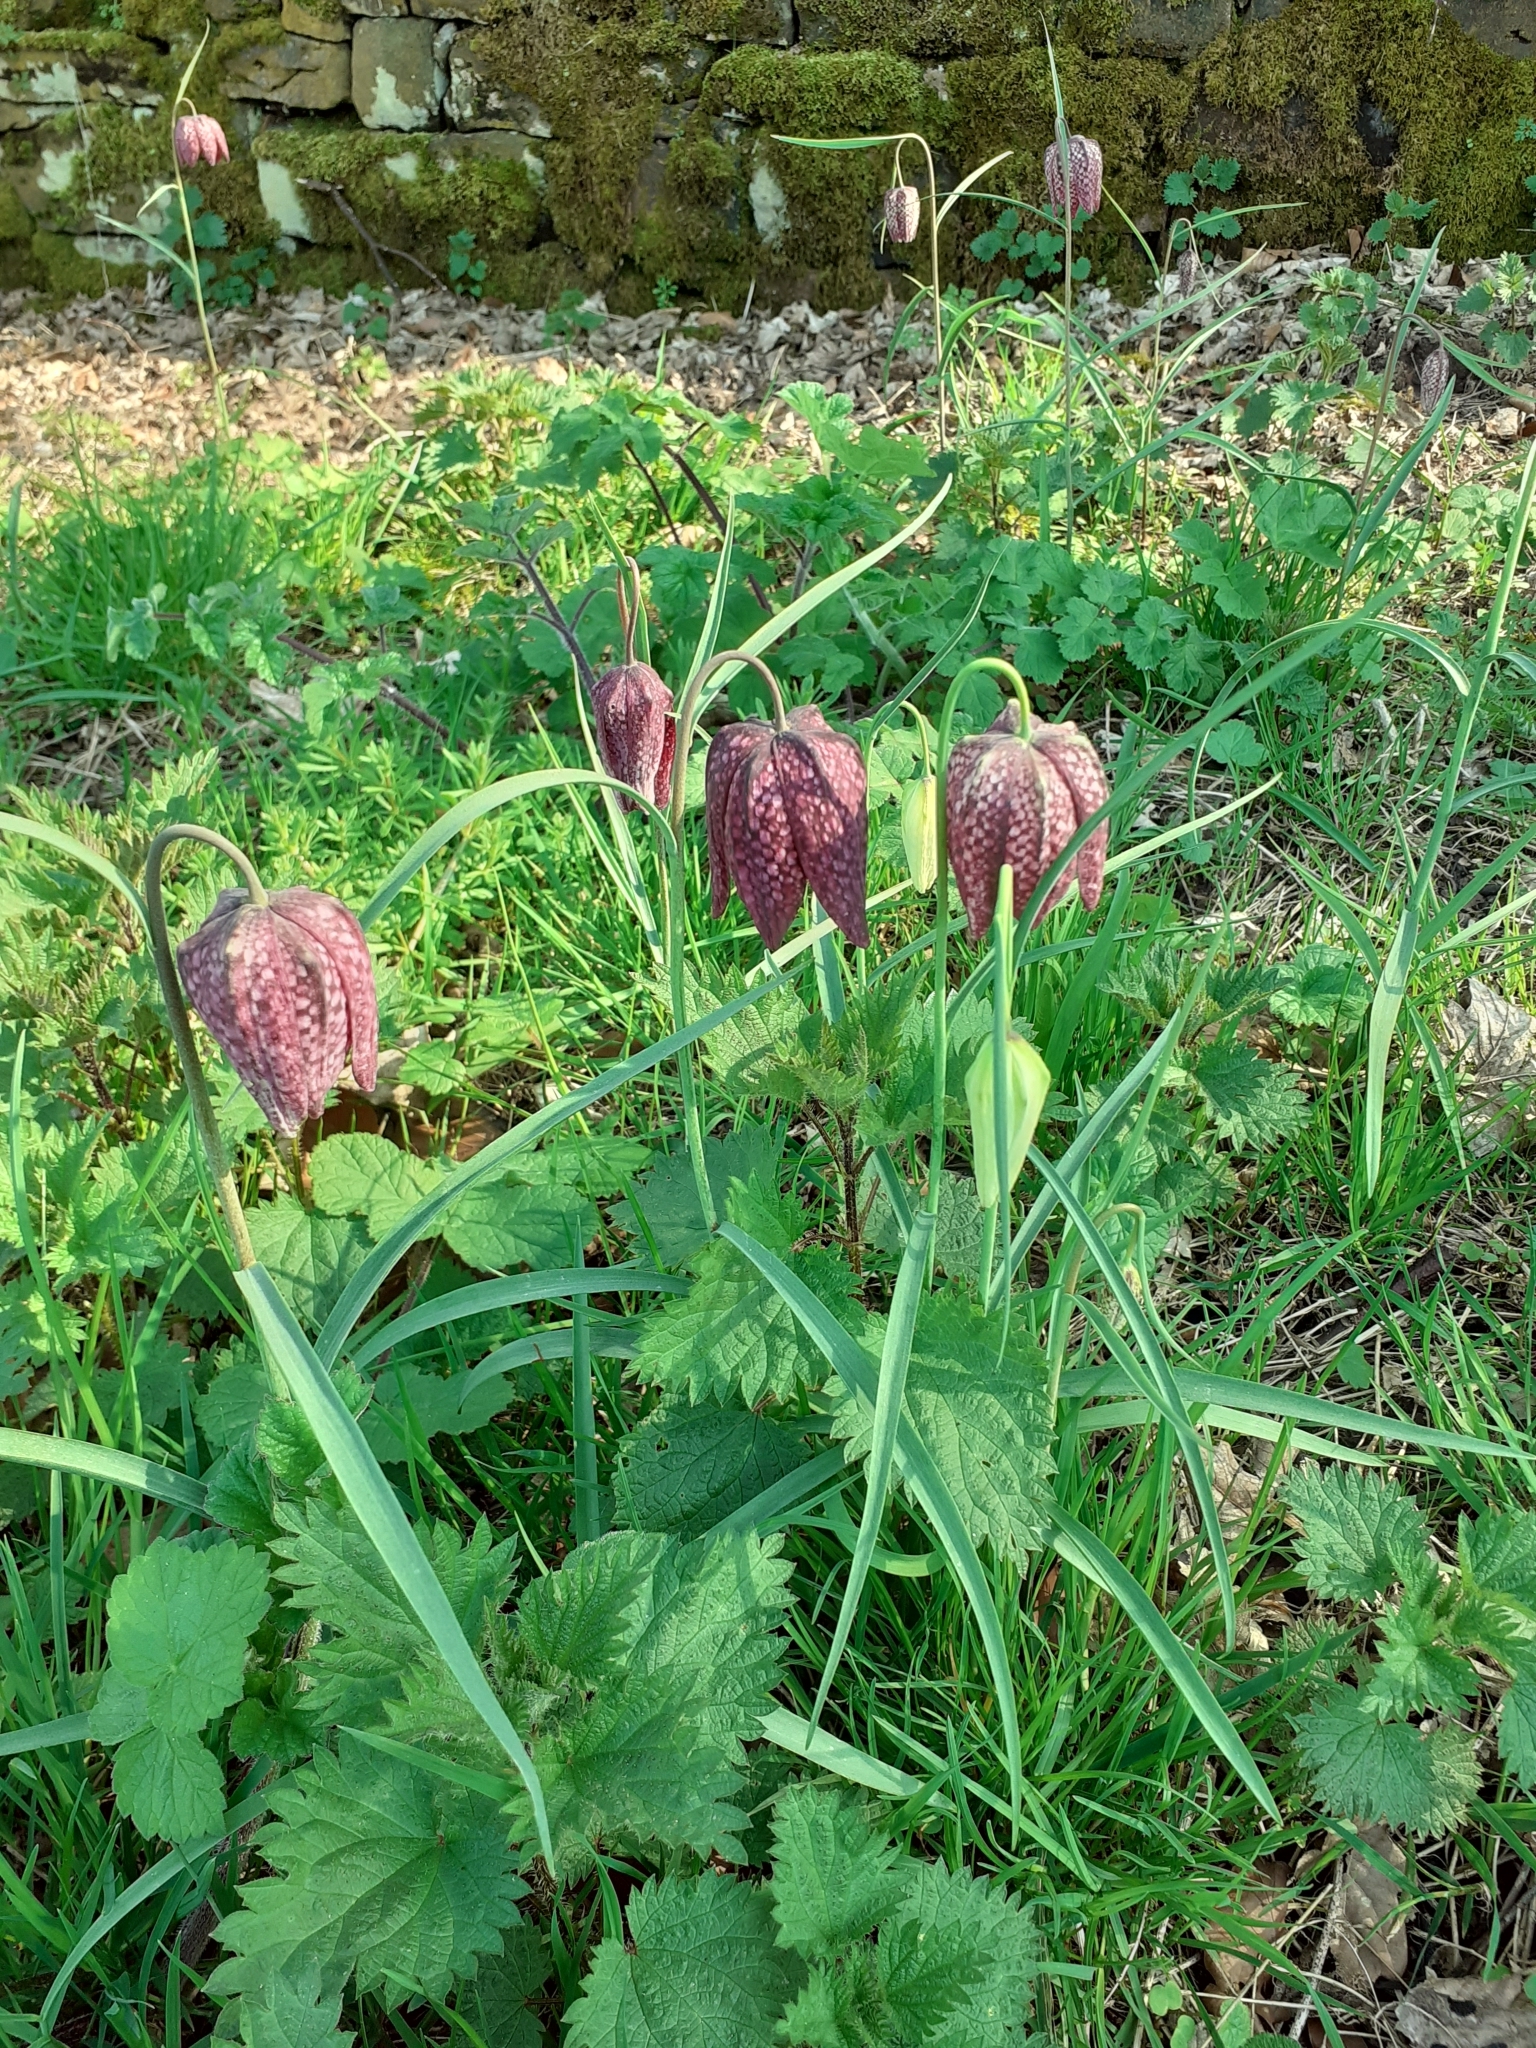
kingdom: Plantae
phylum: Tracheophyta
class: Liliopsida
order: Liliales
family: Liliaceae
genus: Fritillaria
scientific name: Fritillaria meleagris
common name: Fritillary
